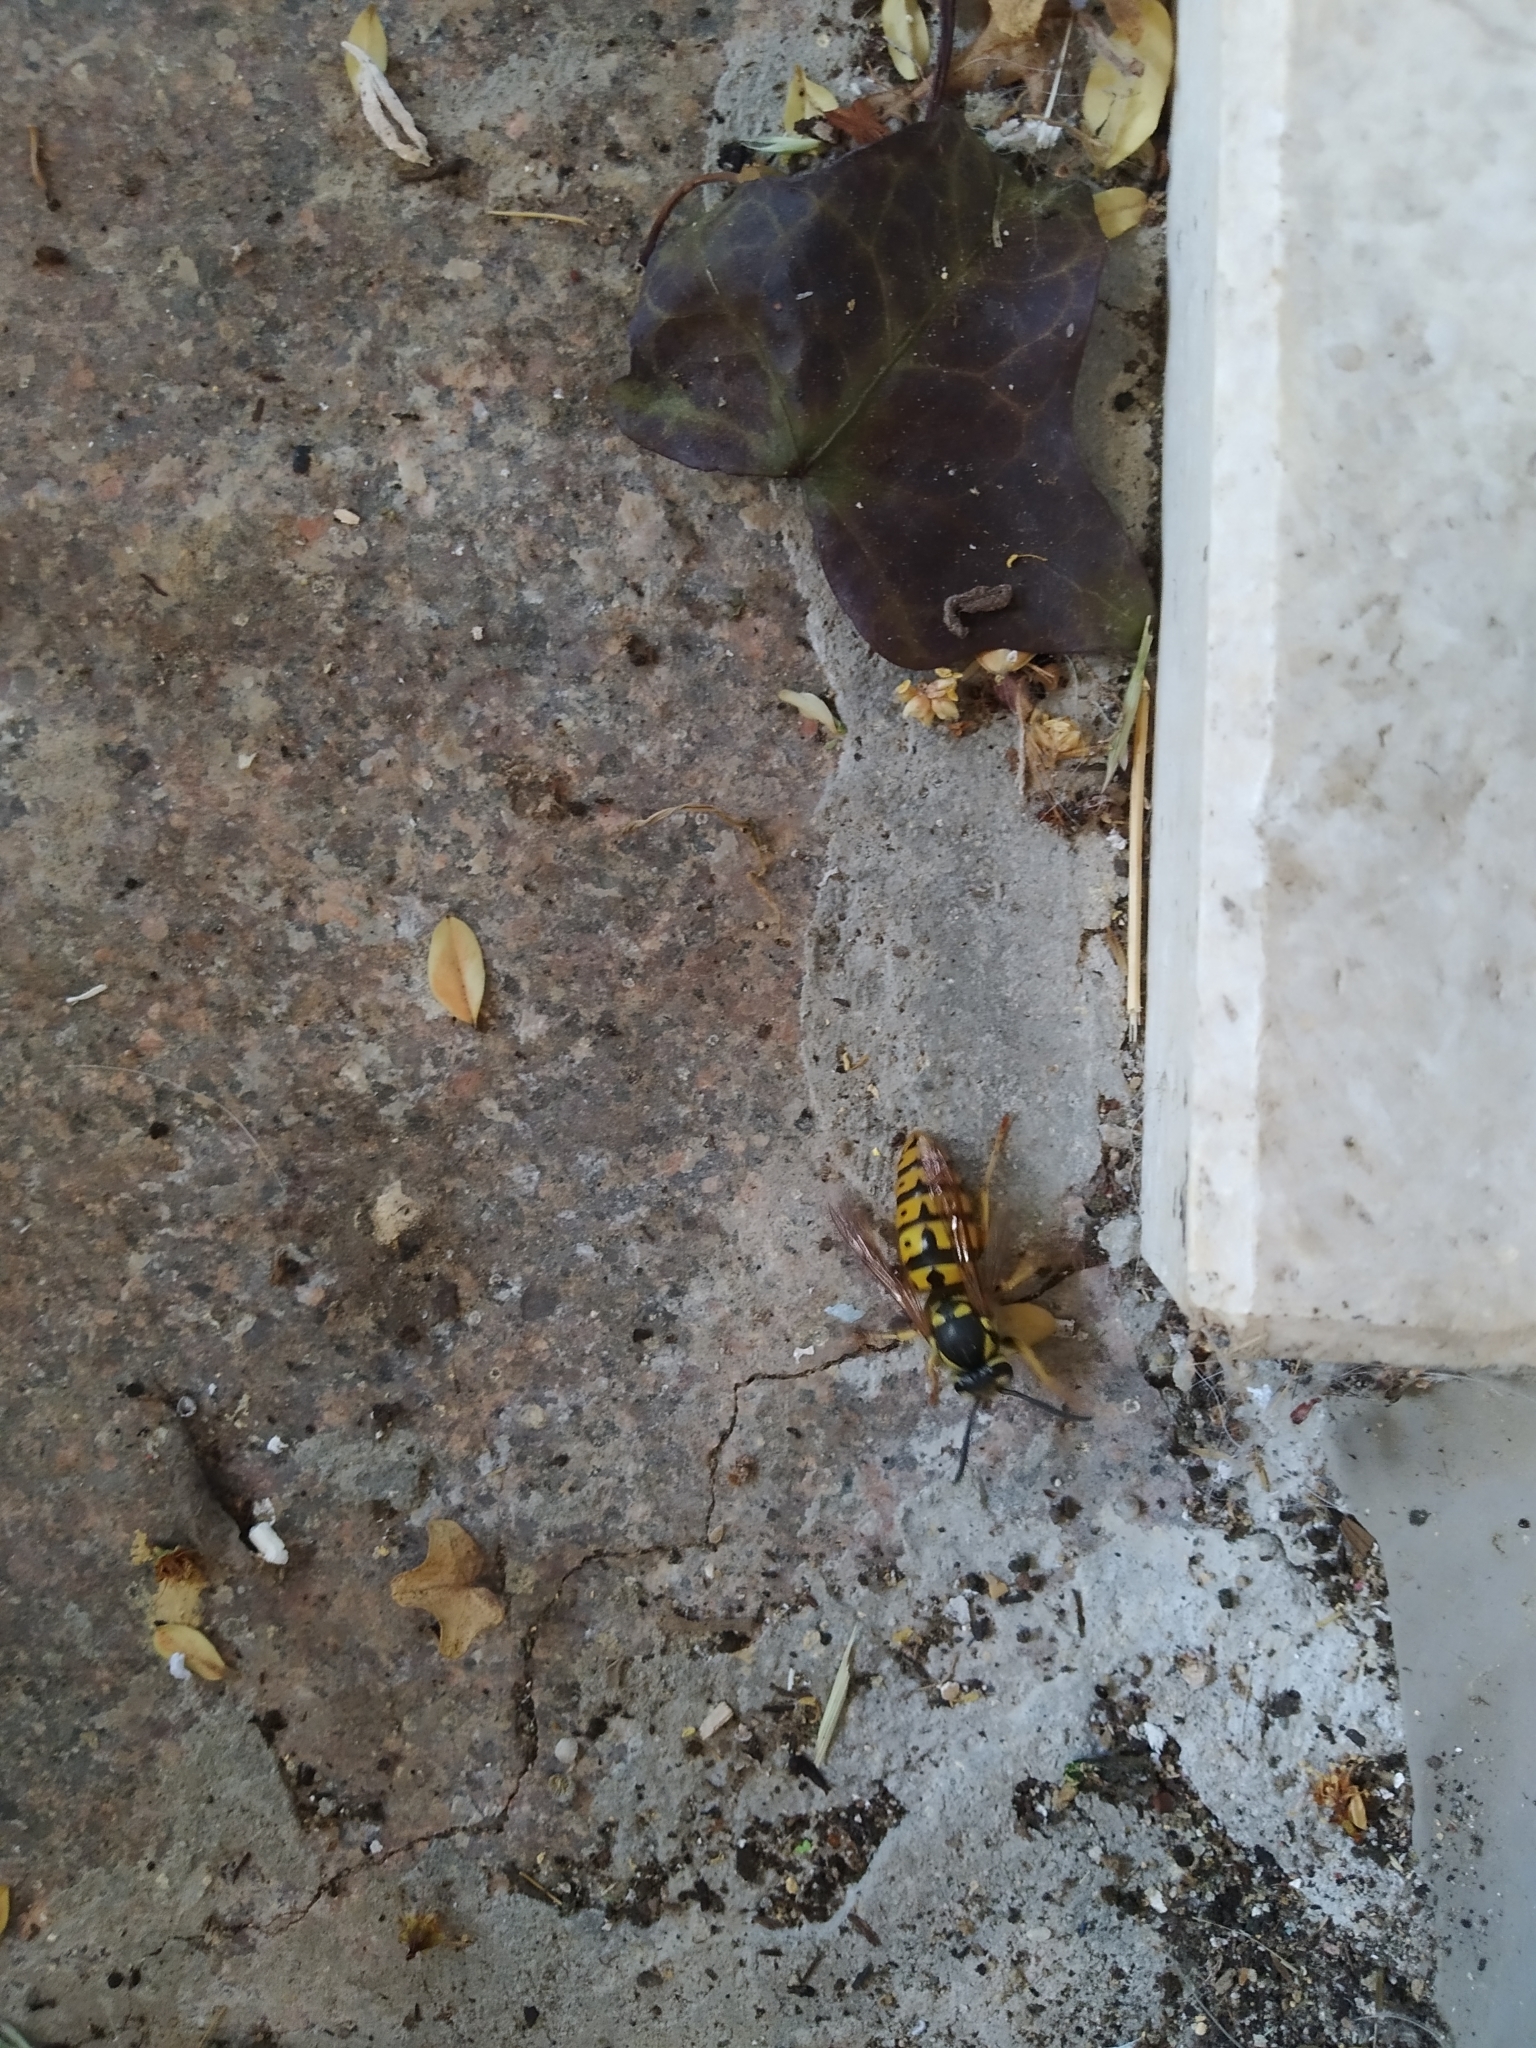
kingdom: Animalia
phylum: Arthropoda
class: Insecta
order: Hymenoptera
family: Vespidae
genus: Vespula
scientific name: Vespula germanica
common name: German wasp
